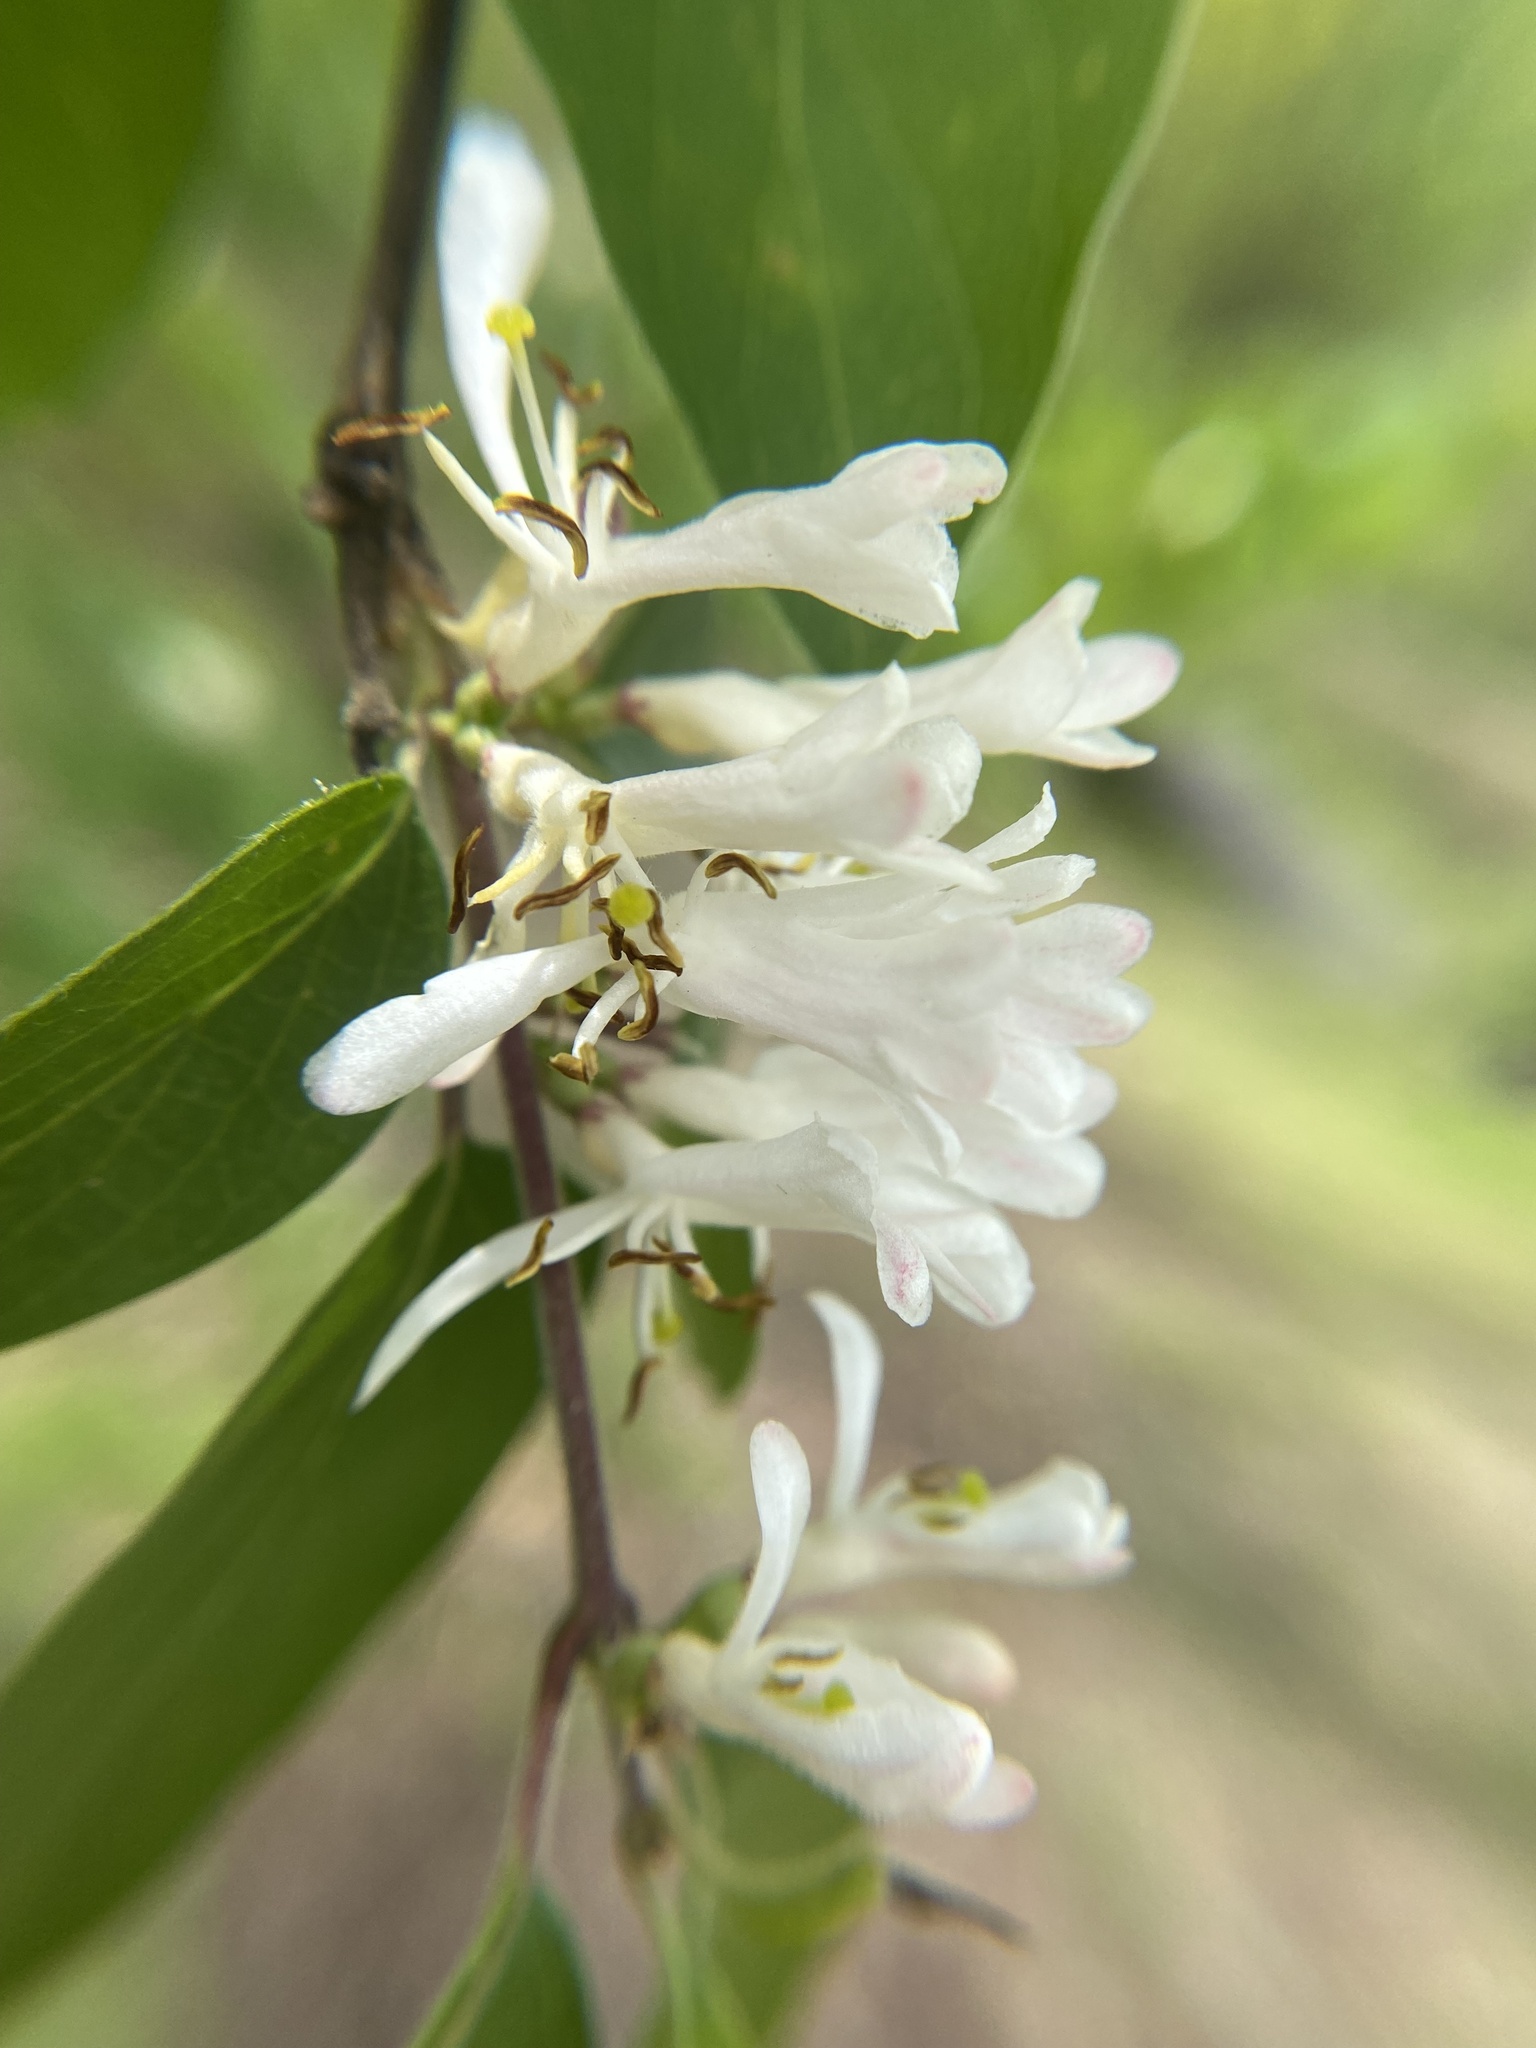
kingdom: Plantae
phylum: Tracheophyta
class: Magnoliopsida
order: Dipsacales
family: Caprifoliaceae
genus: Lonicera
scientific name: Lonicera maackii
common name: Amur honeysuckle
